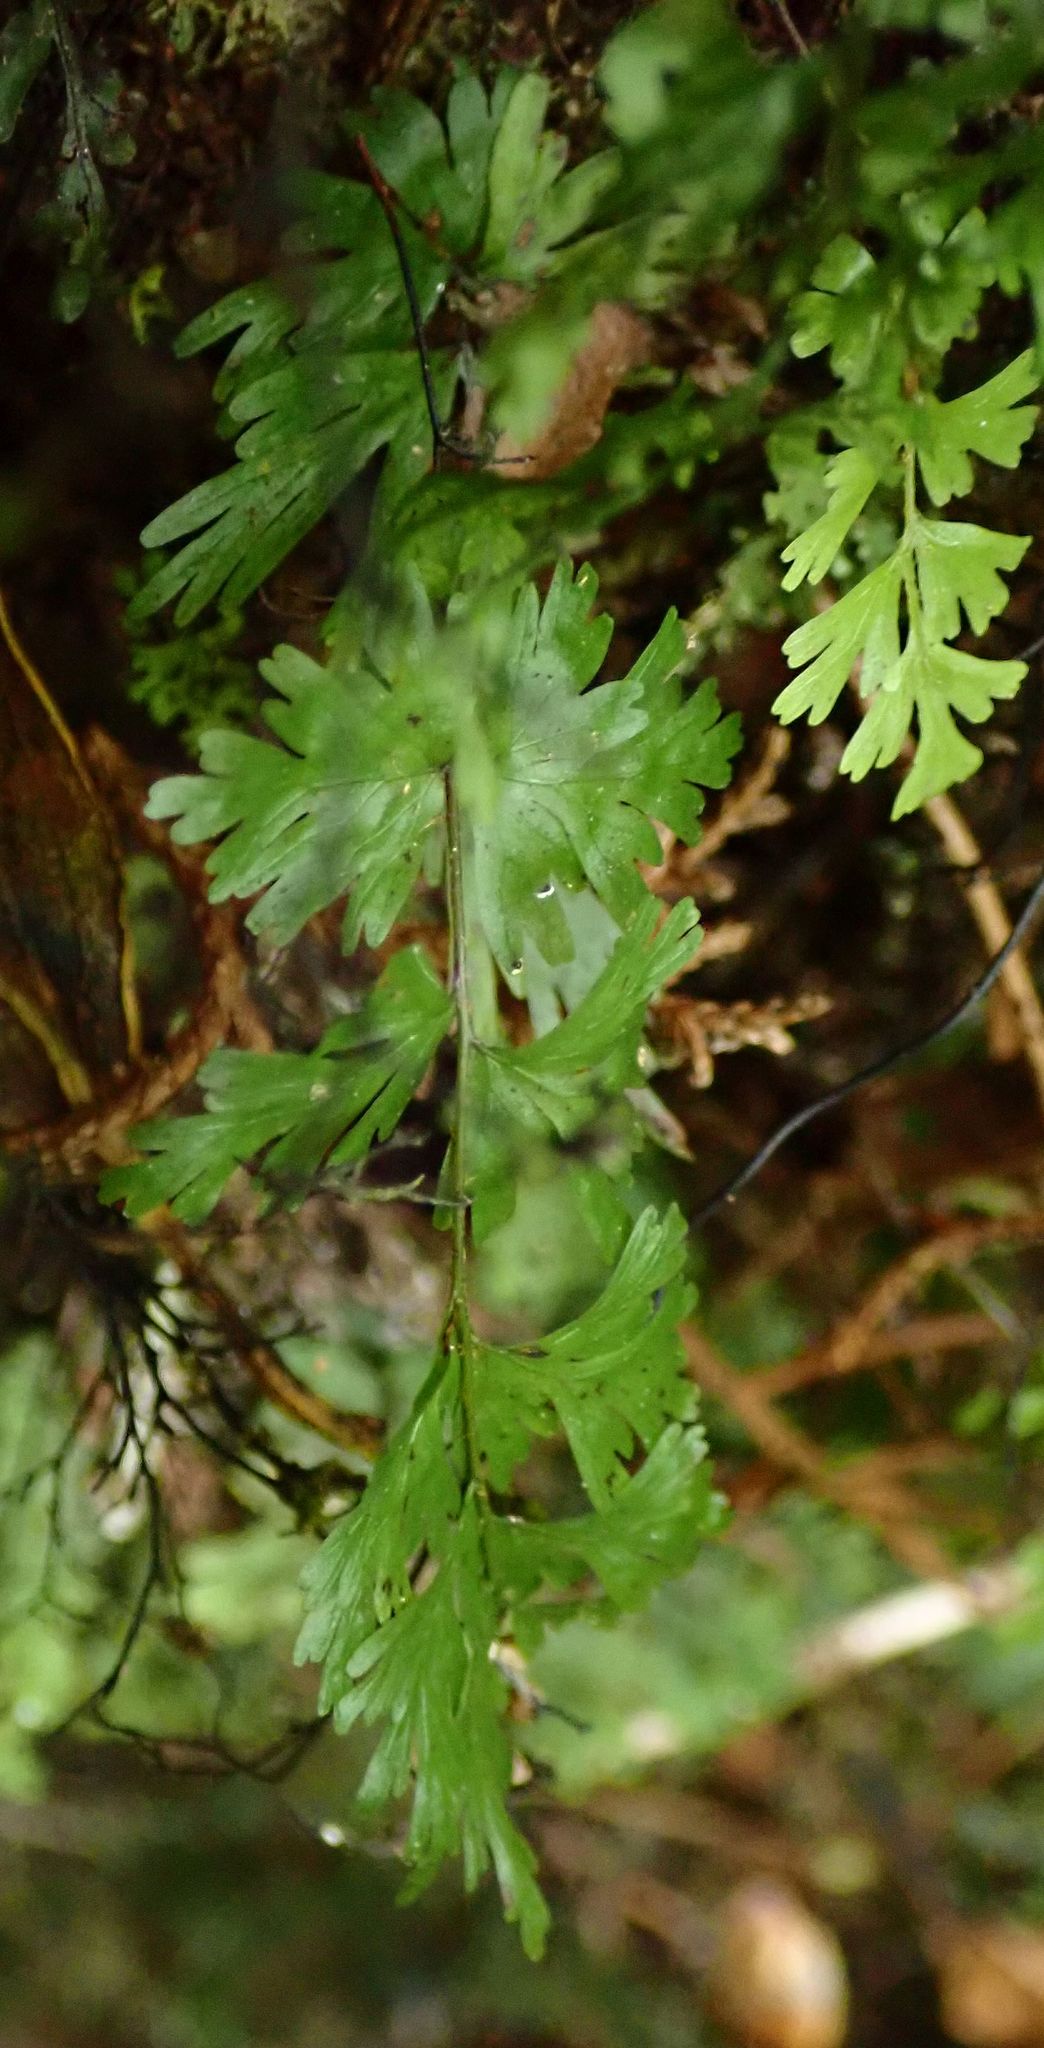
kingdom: Plantae
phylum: Tracheophyta
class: Polypodiopsida
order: Hymenophyllales
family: Hymenophyllaceae
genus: Hymenophyllum
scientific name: Hymenophyllum flabellatum
